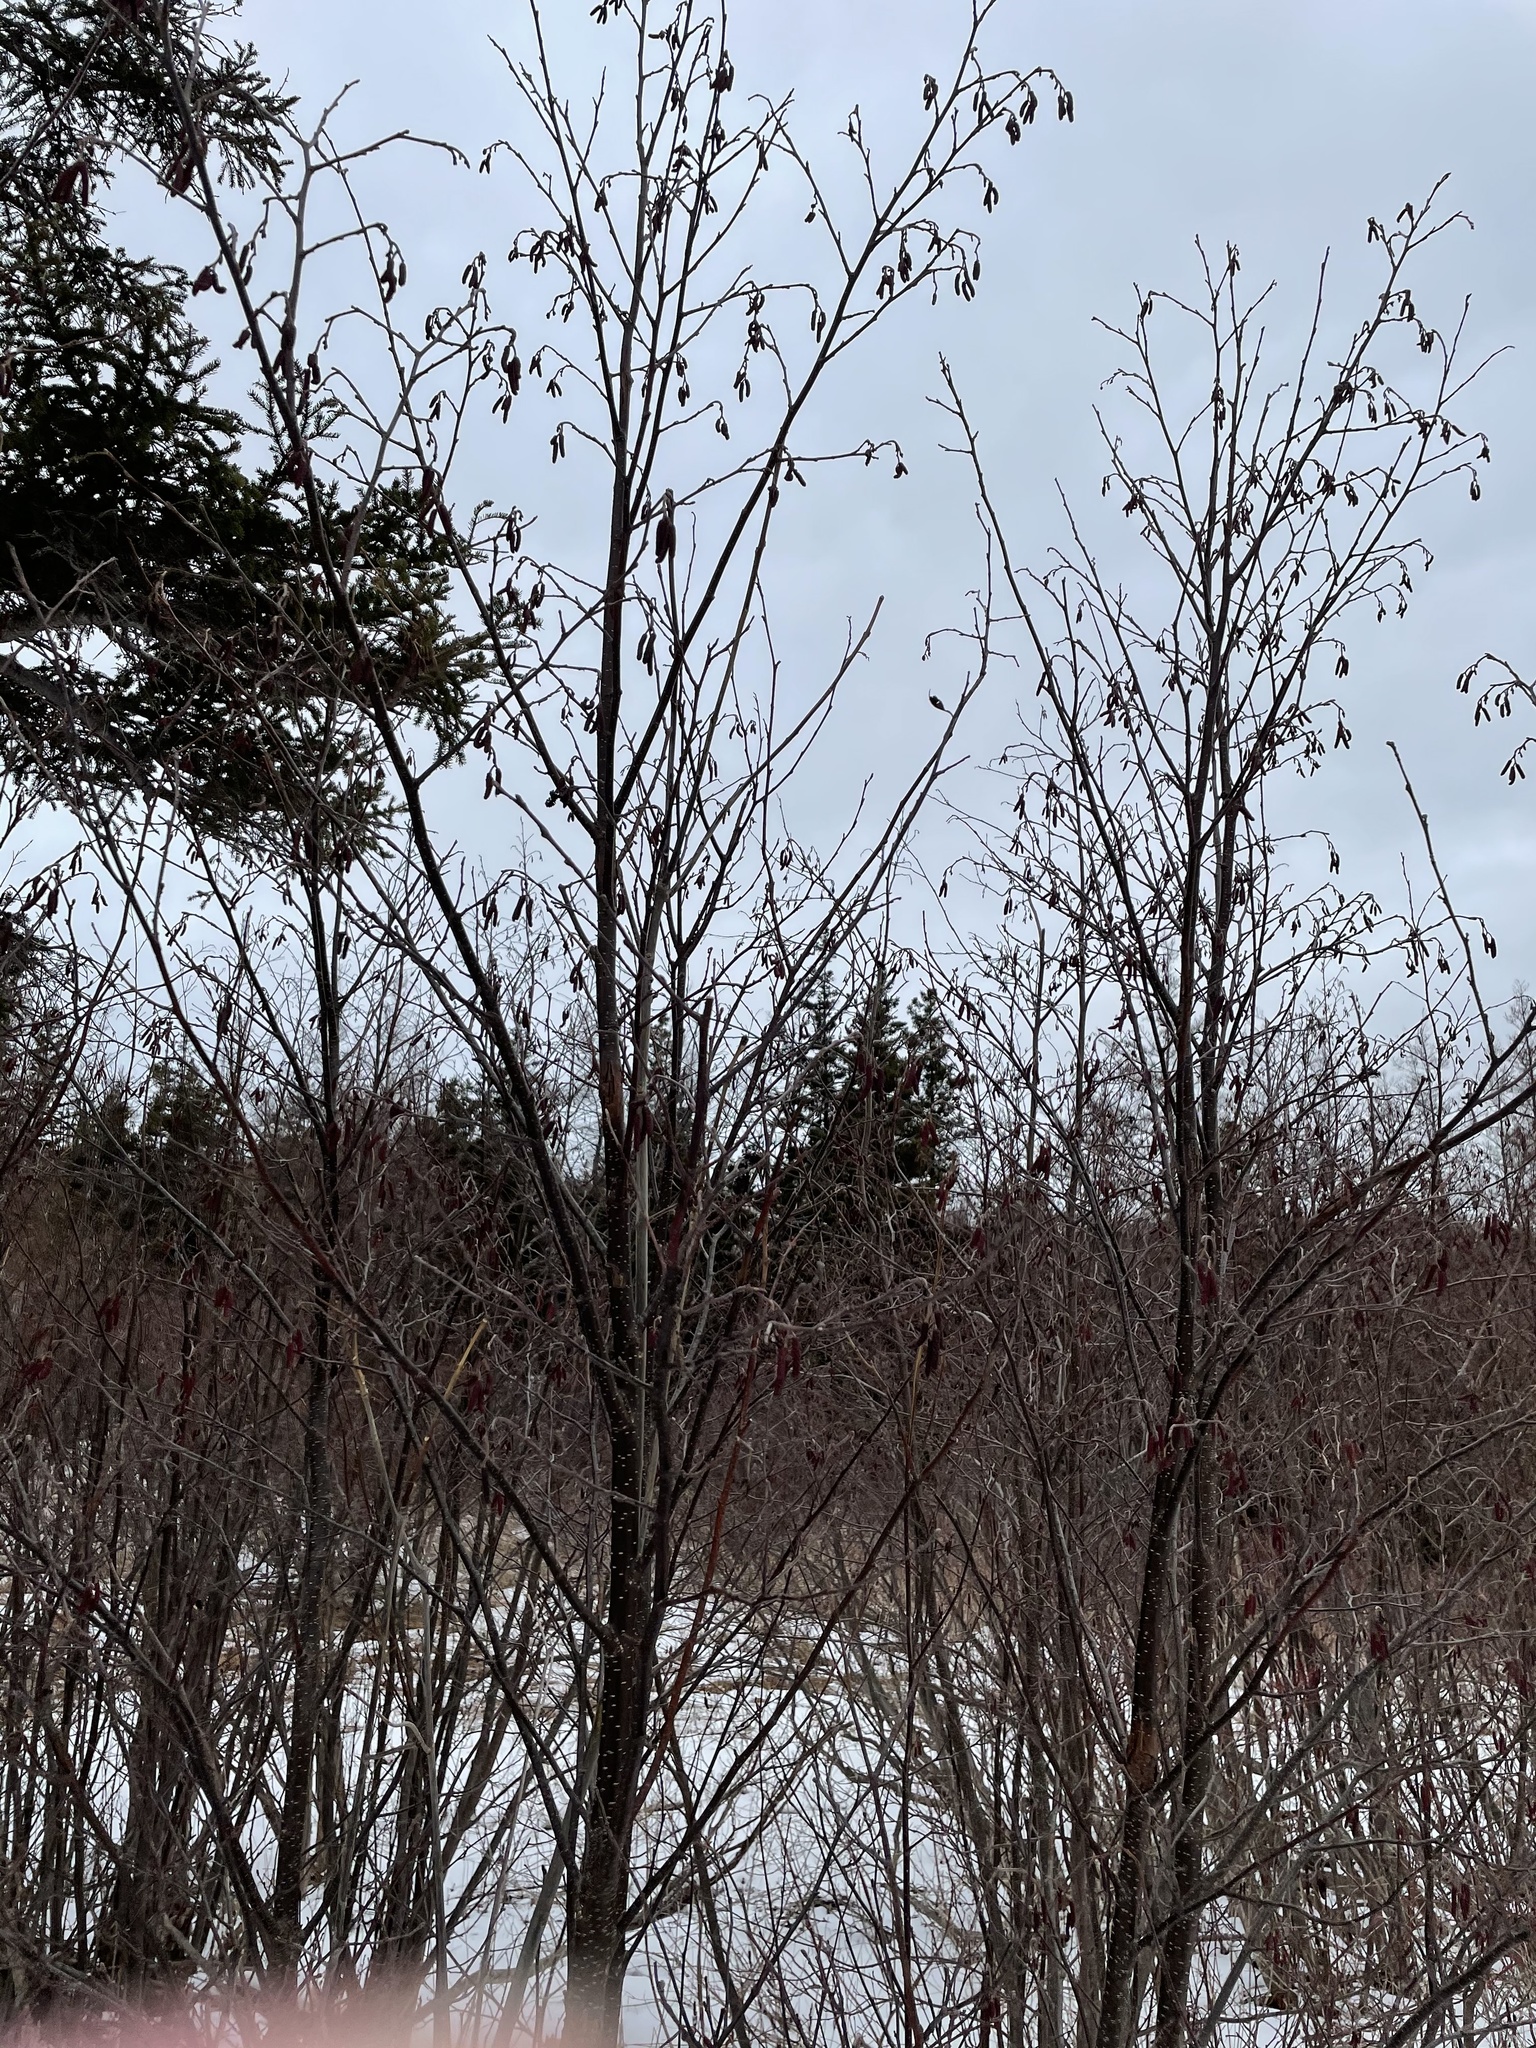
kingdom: Plantae
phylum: Tracheophyta
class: Magnoliopsida
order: Fagales
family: Betulaceae
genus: Alnus
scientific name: Alnus incana
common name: Grey alder
